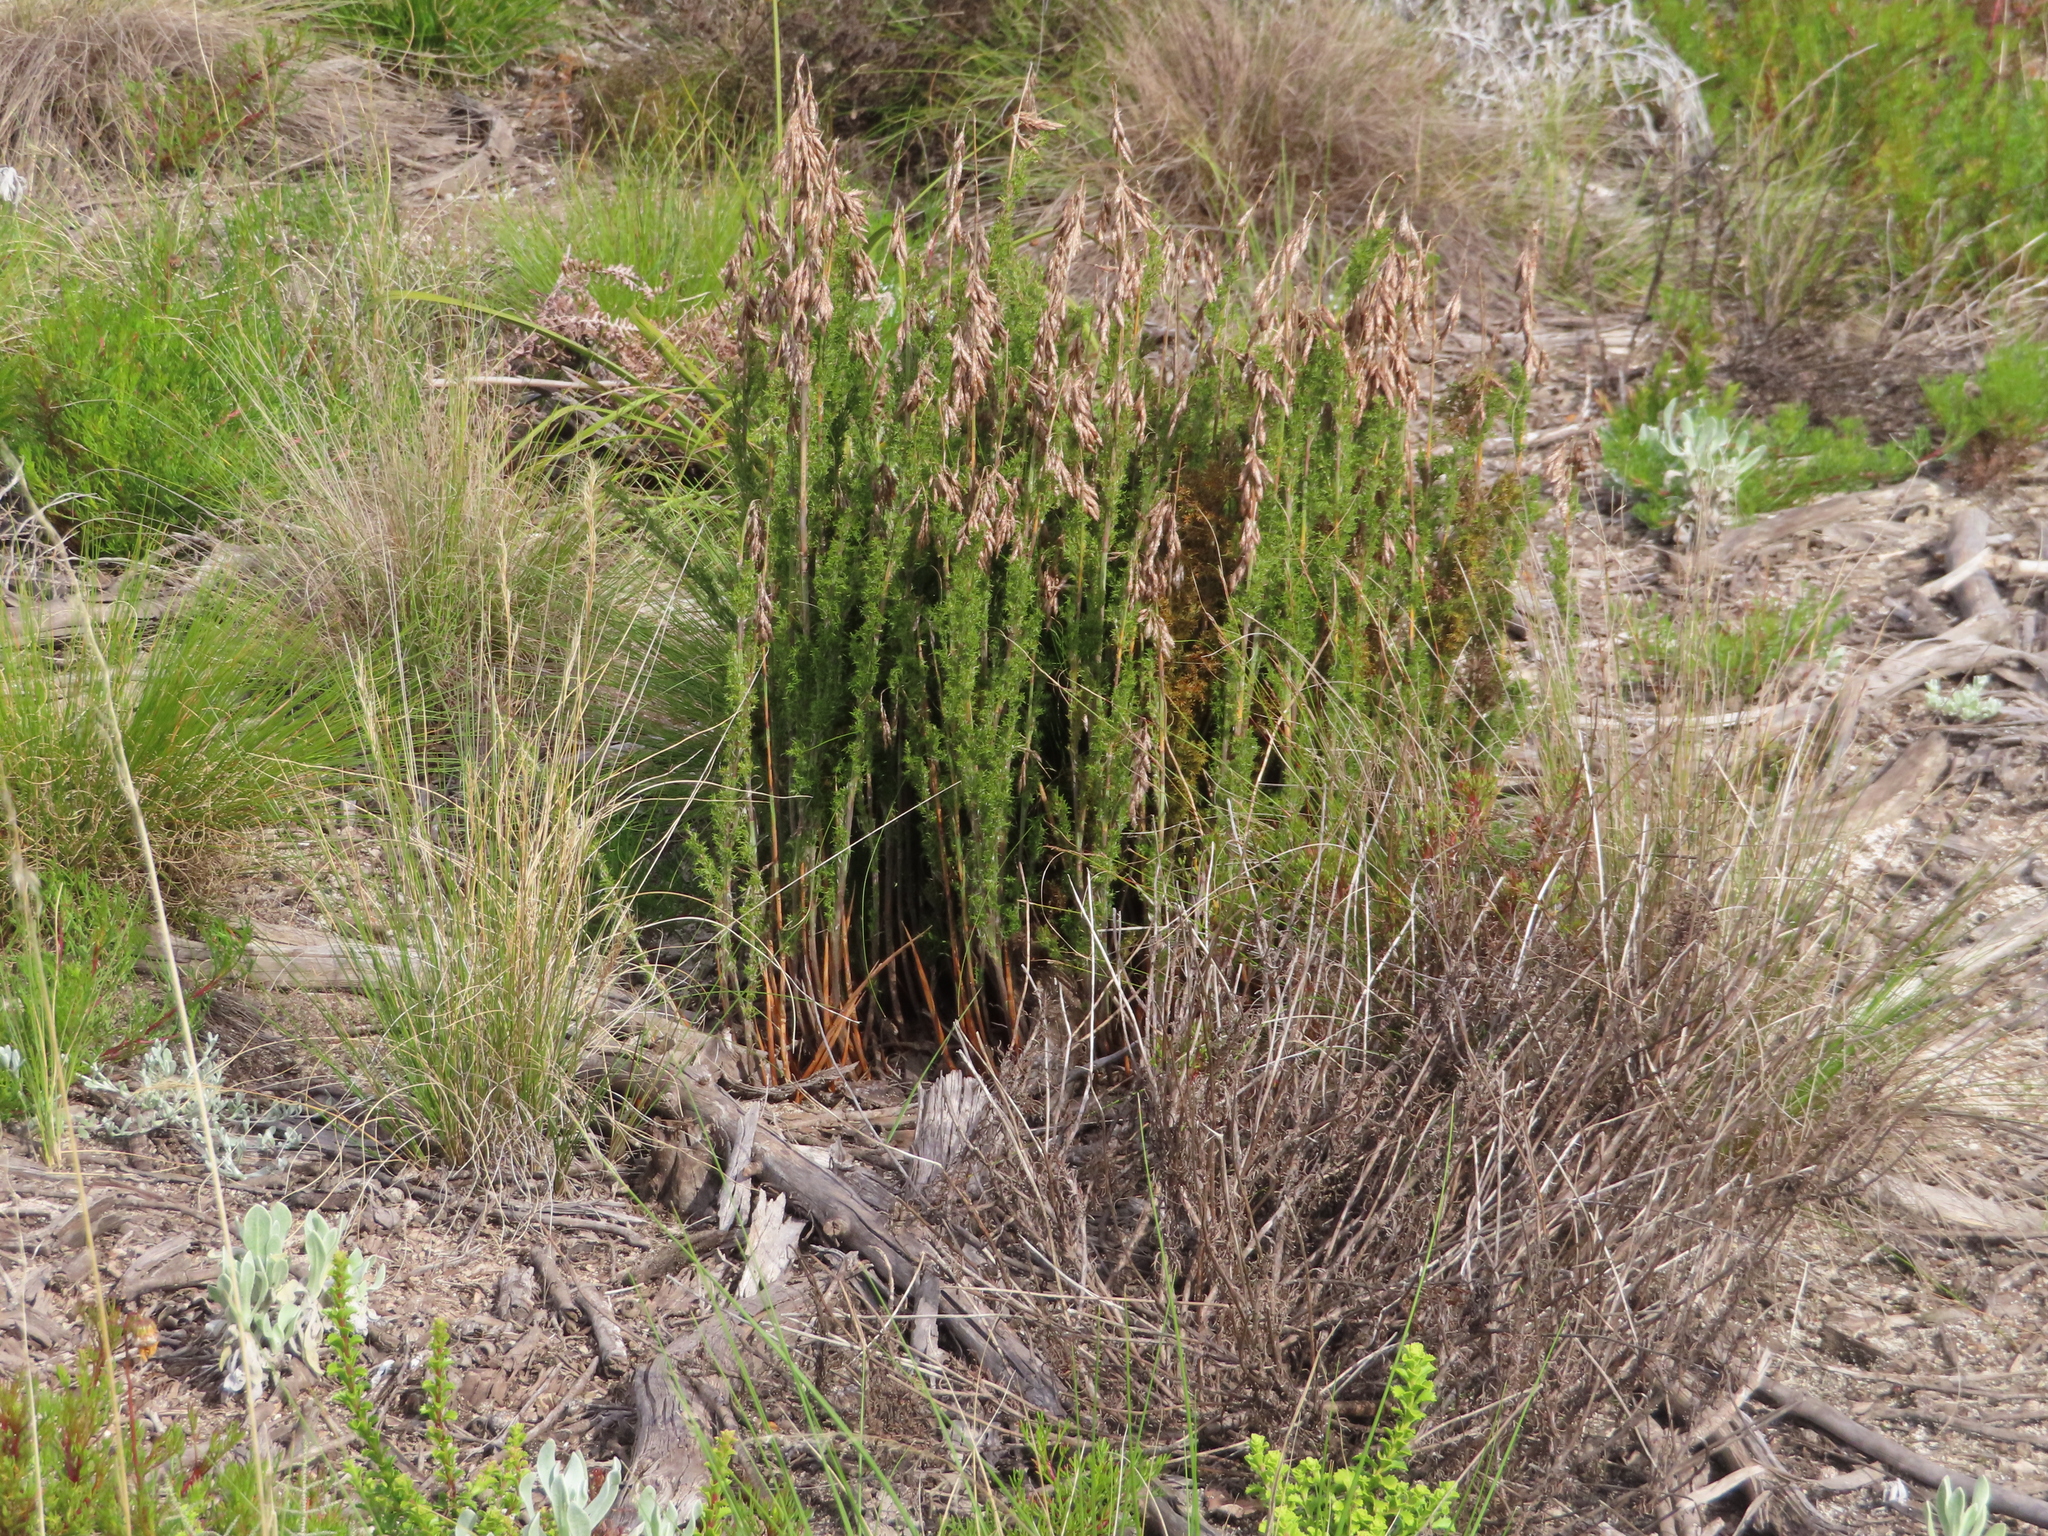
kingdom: Plantae
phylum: Tracheophyta
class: Liliopsida
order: Poales
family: Restionaceae
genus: Thamnochortus
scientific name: Thamnochortus fruticosus
